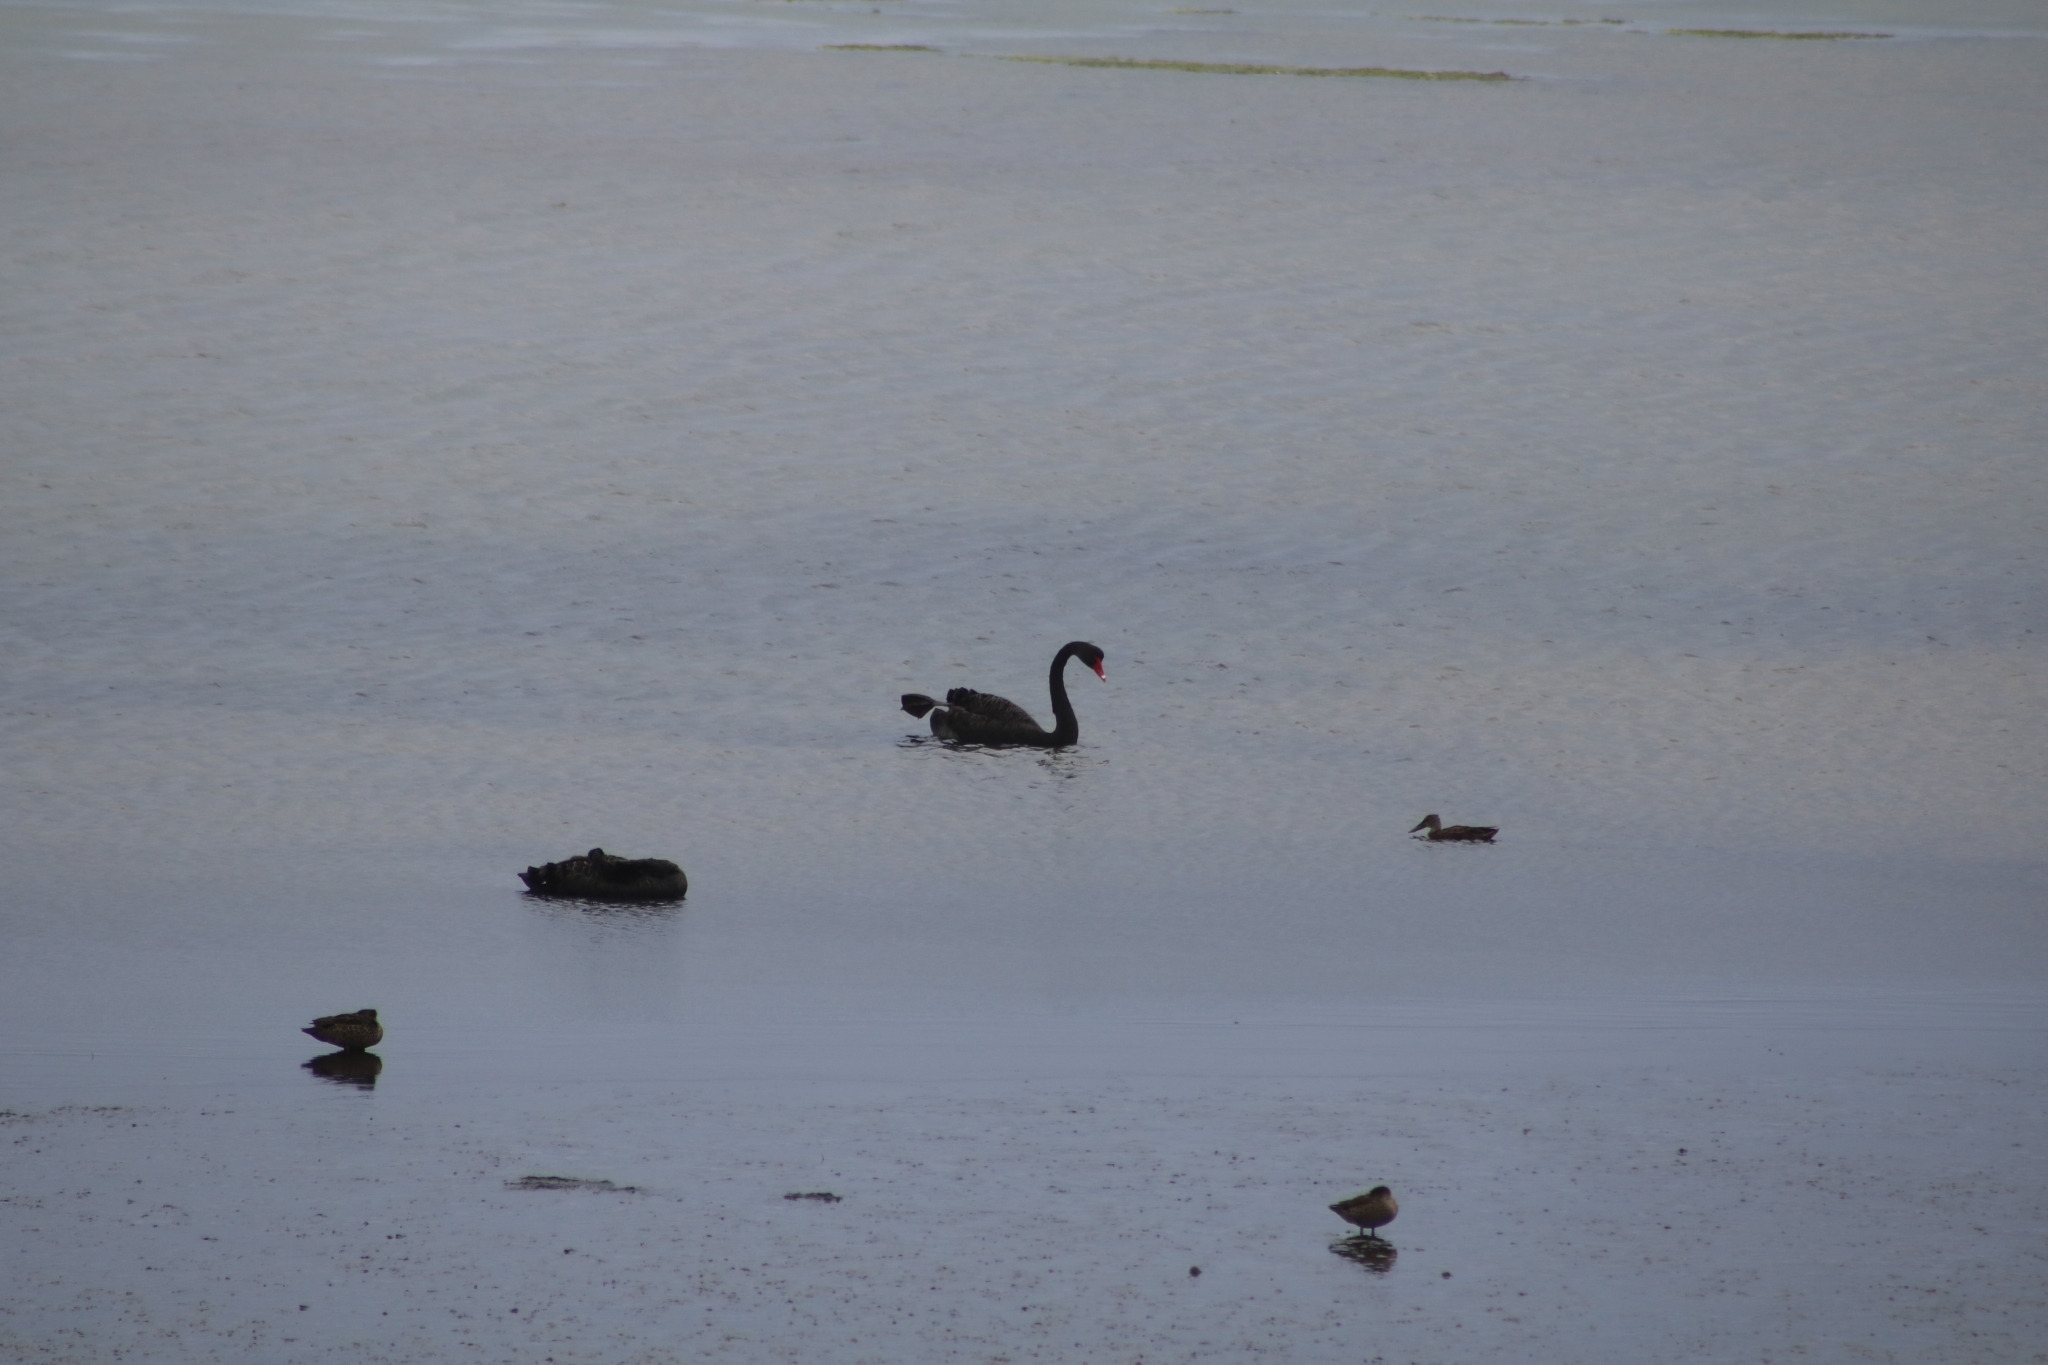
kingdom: Animalia
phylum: Chordata
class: Aves
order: Anseriformes
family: Anatidae
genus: Cygnus
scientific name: Cygnus atratus
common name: Black swan
